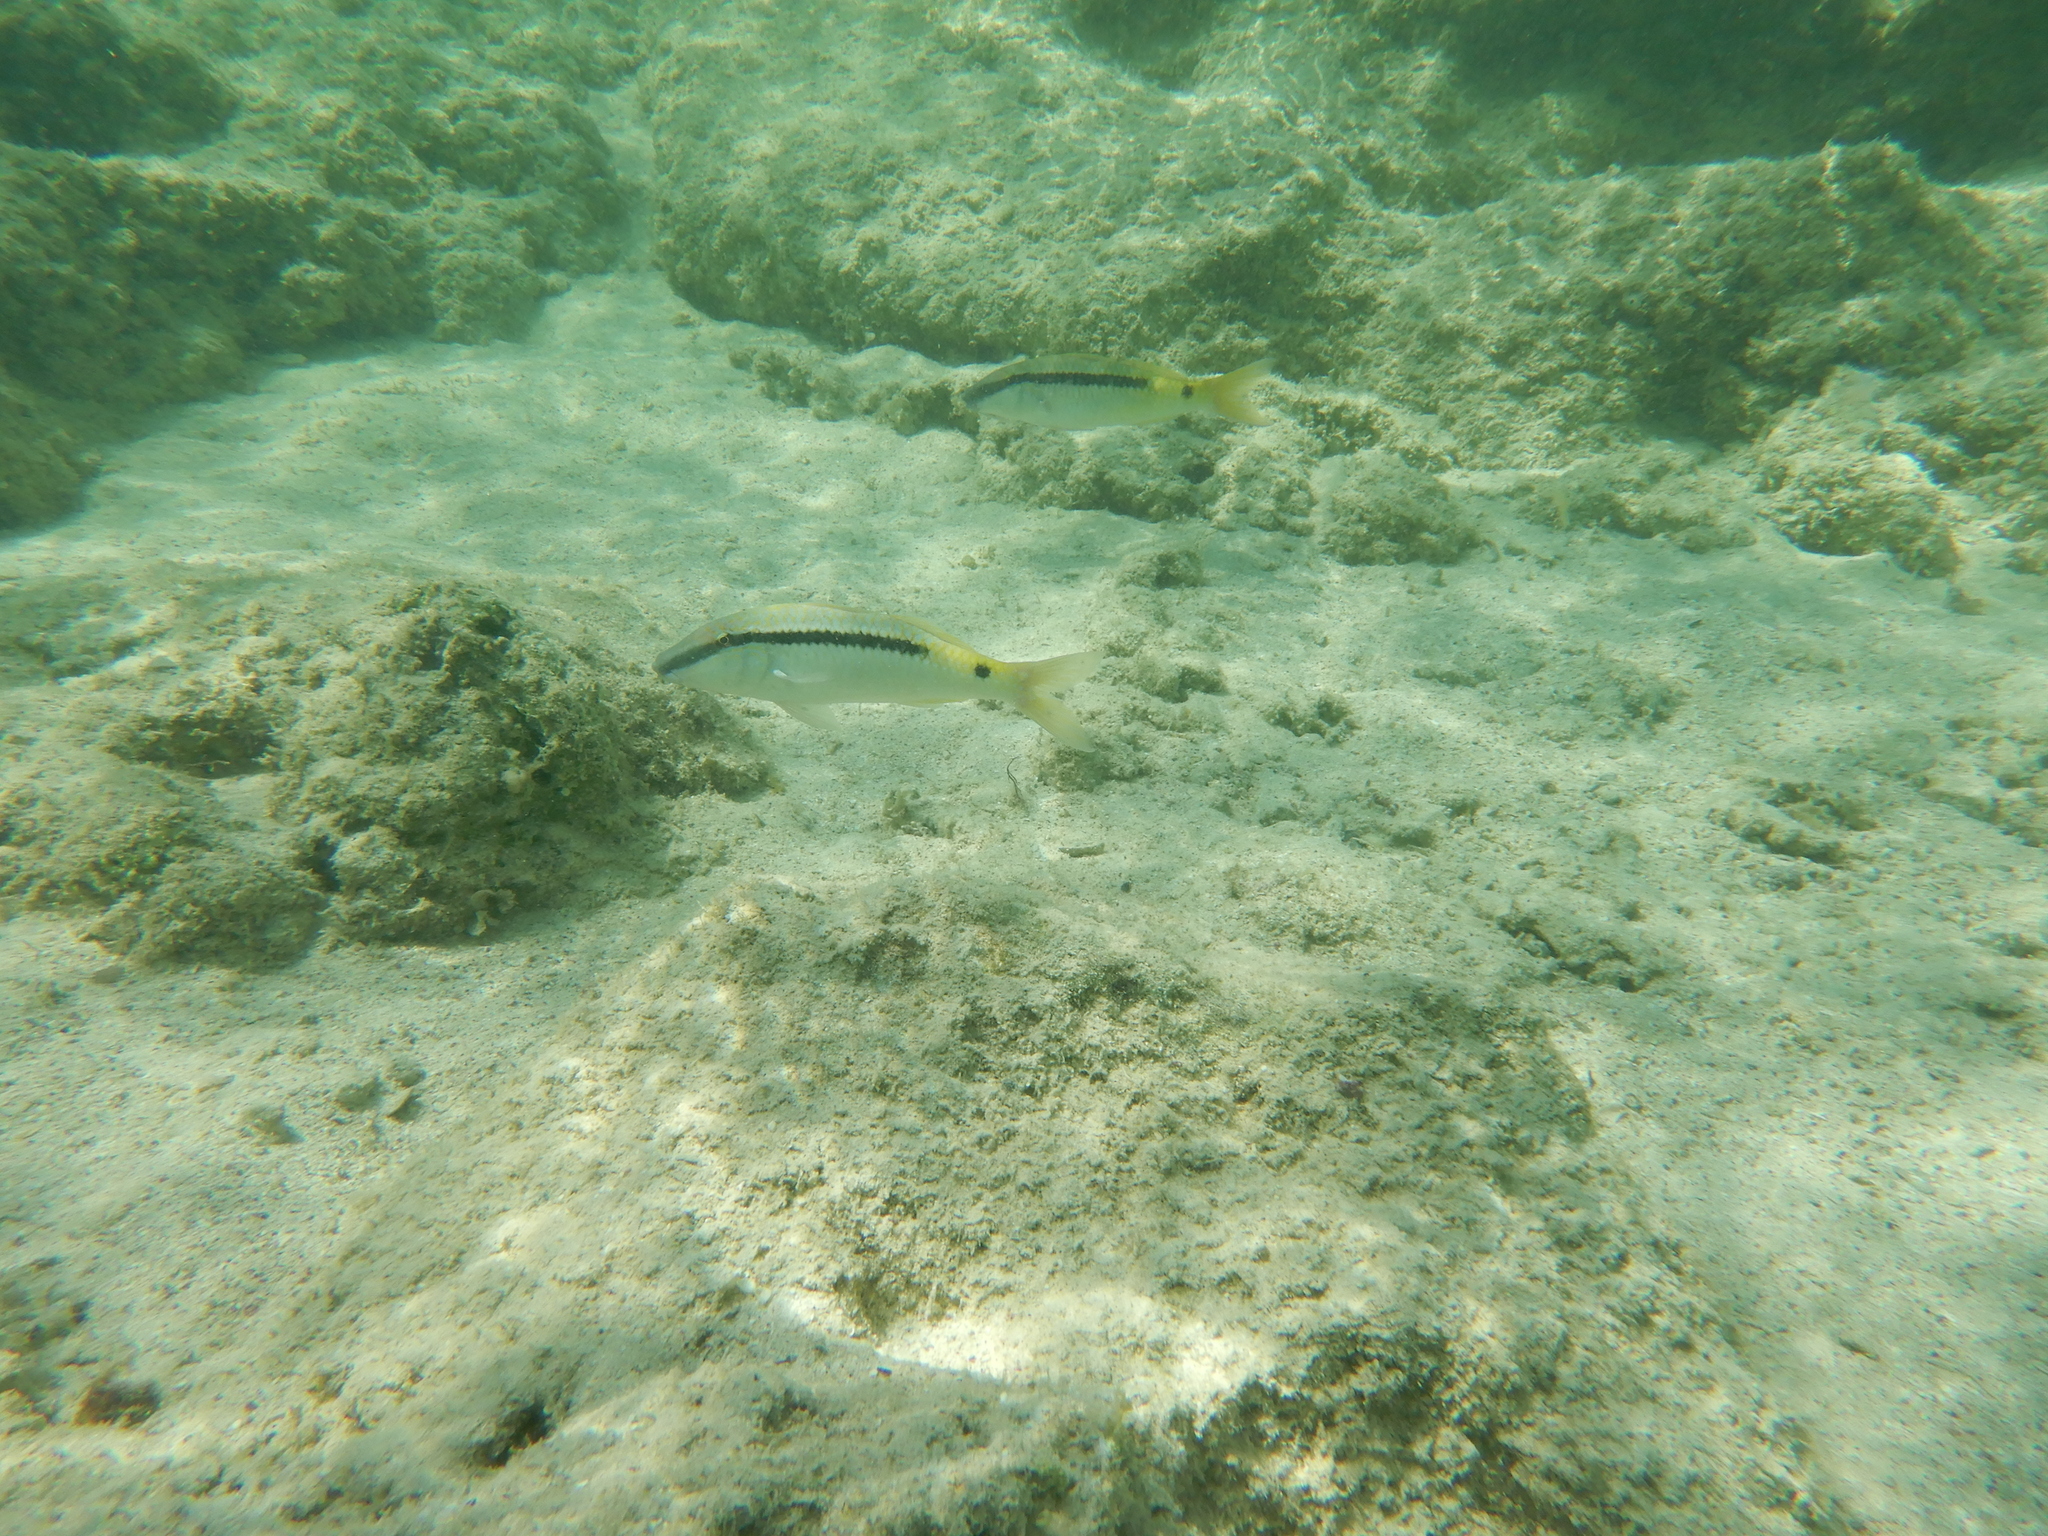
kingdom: Animalia
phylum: Chordata
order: Perciformes
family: Mullidae
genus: Parupeneus
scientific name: Parupeneus forsskali
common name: Red sea goatfish
